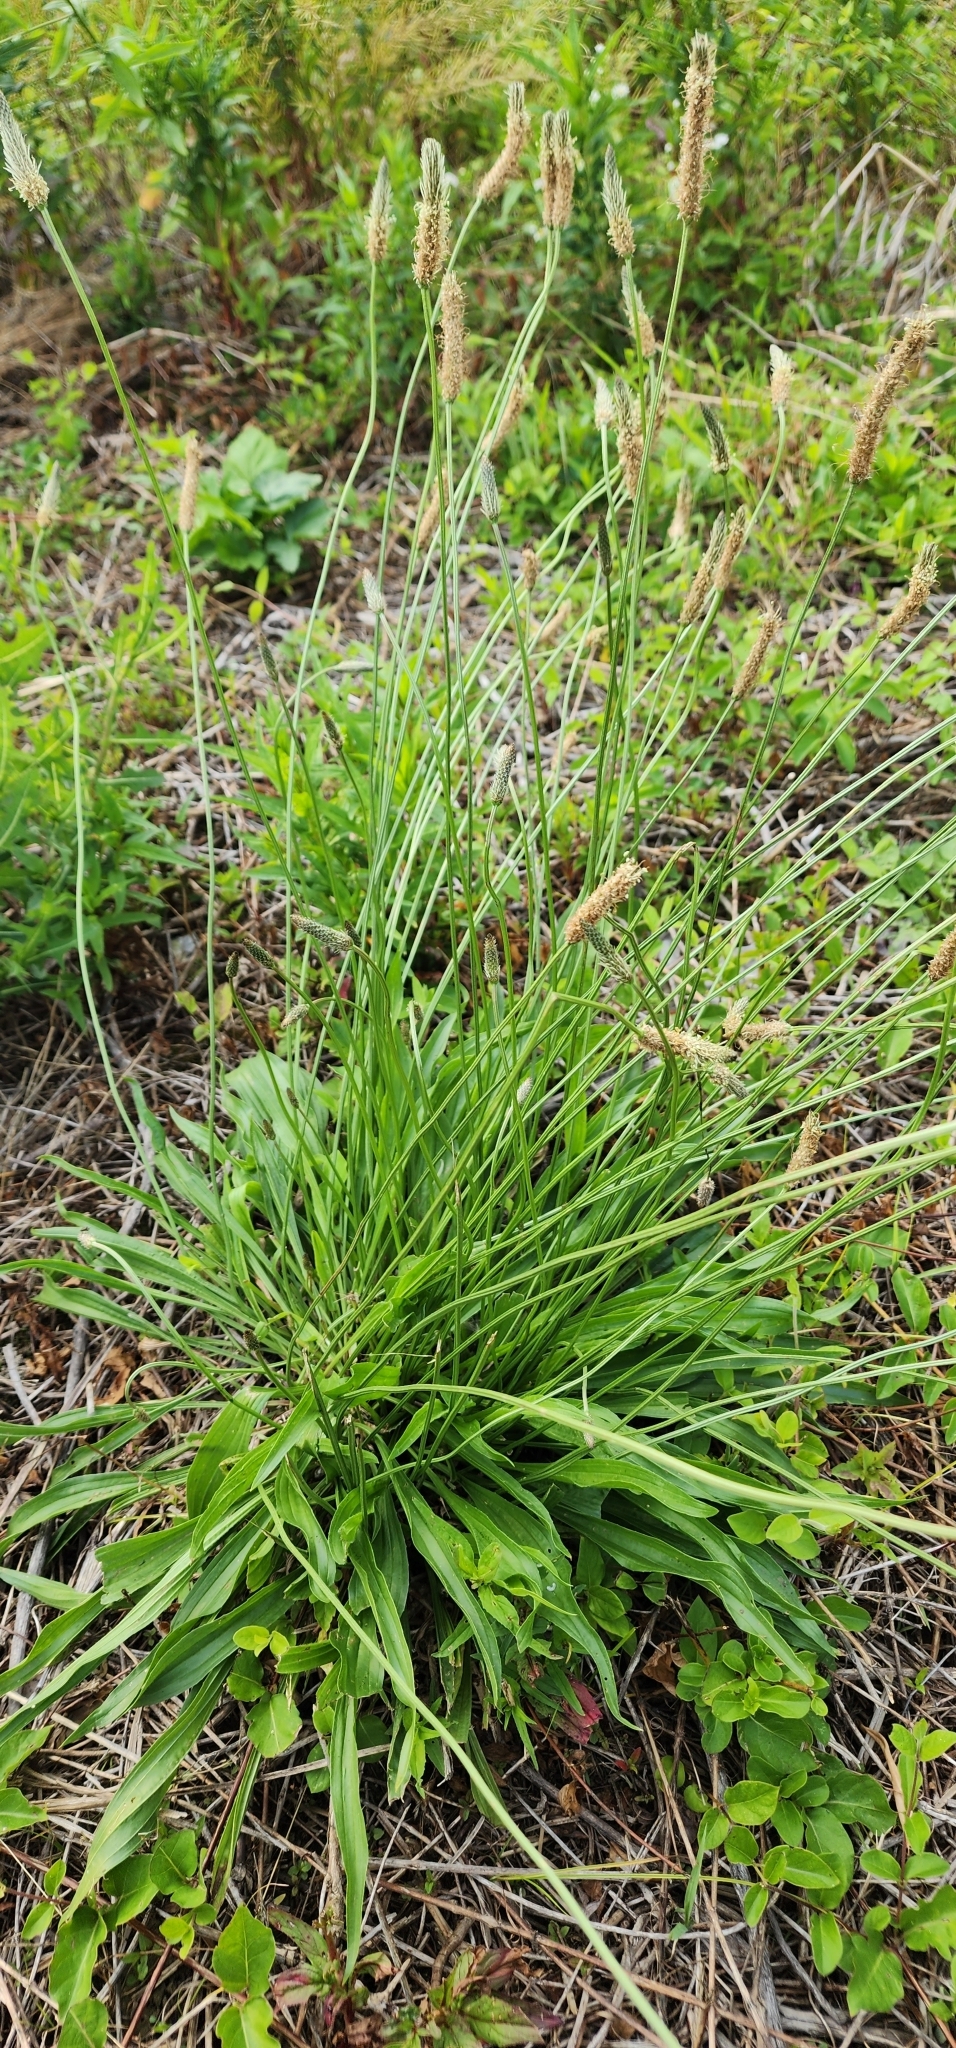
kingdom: Plantae
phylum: Tracheophyta
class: Magnoliopsida
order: Lamiales
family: Plantaginaceae
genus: Plantago
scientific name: Plantago lanceolata
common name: Ribwort plantain
